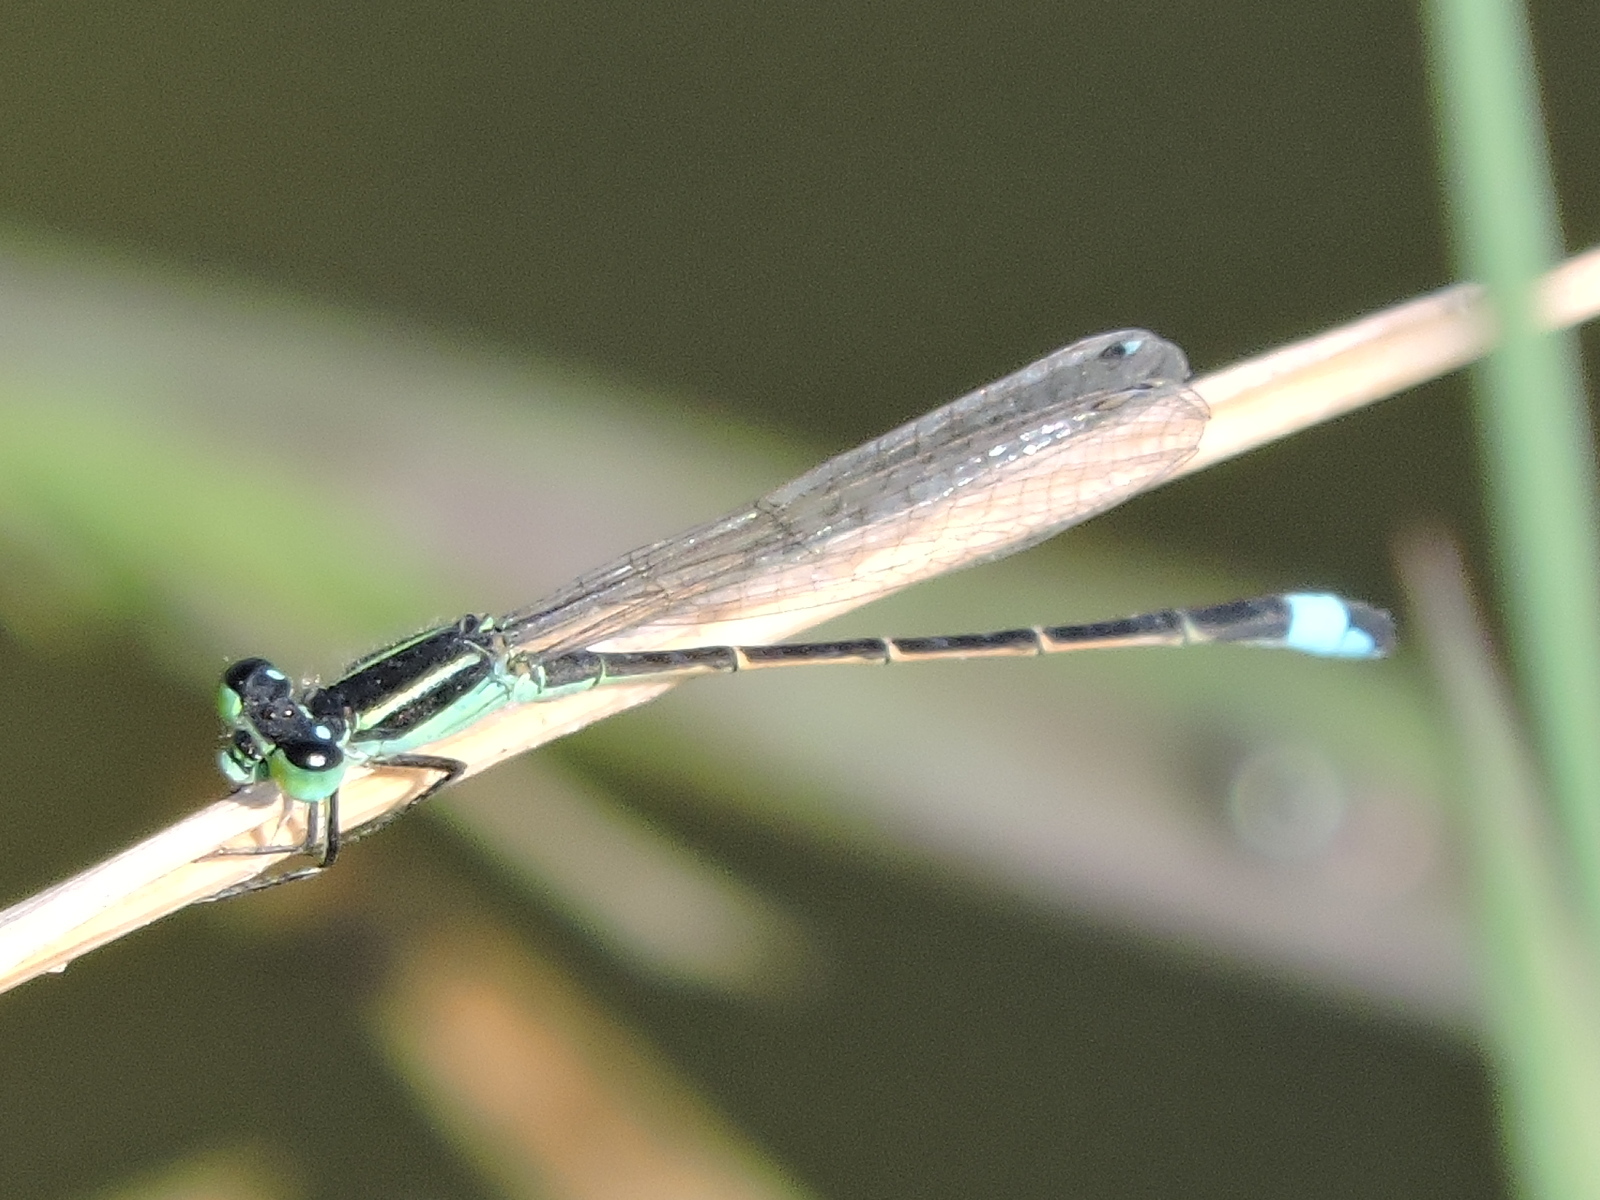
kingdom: Animalia
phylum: Arthropoda
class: Insecta
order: Odonata
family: Coenagrionidae
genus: Ischnura
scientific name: Ischnura ramburii
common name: Rambur's forktail
